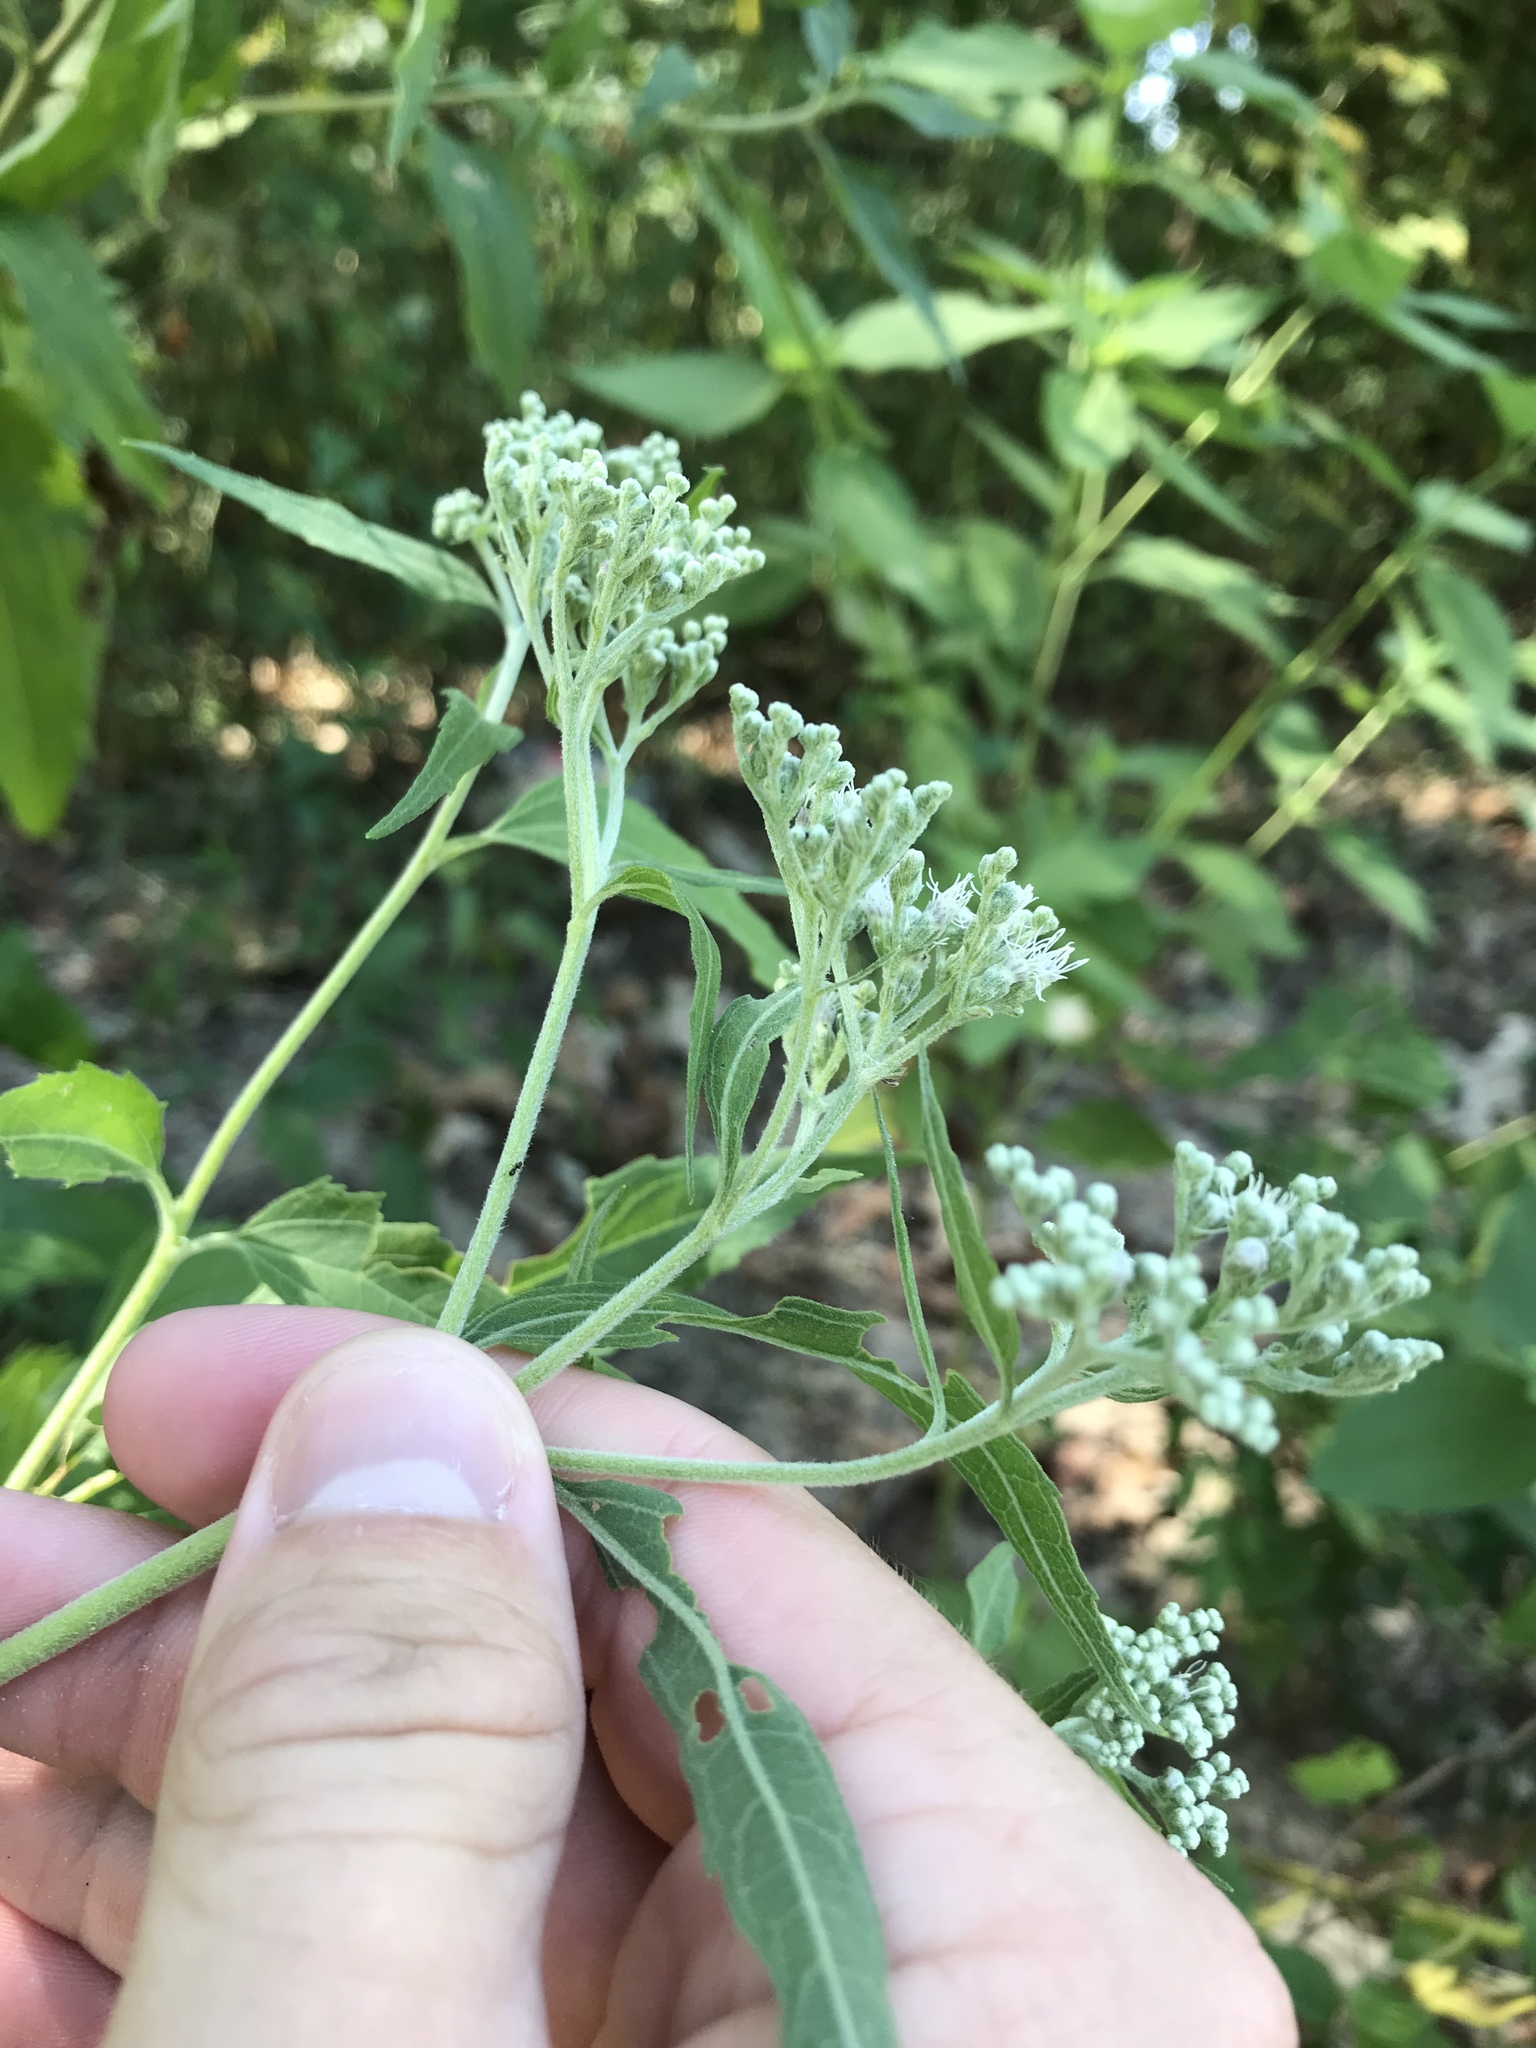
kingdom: Plantae
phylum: Tracheophyta
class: Magnoliopsida
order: Asterales
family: Asteraceae
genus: Eupatorium
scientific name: Eupatorium serotinum
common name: Late boneset
